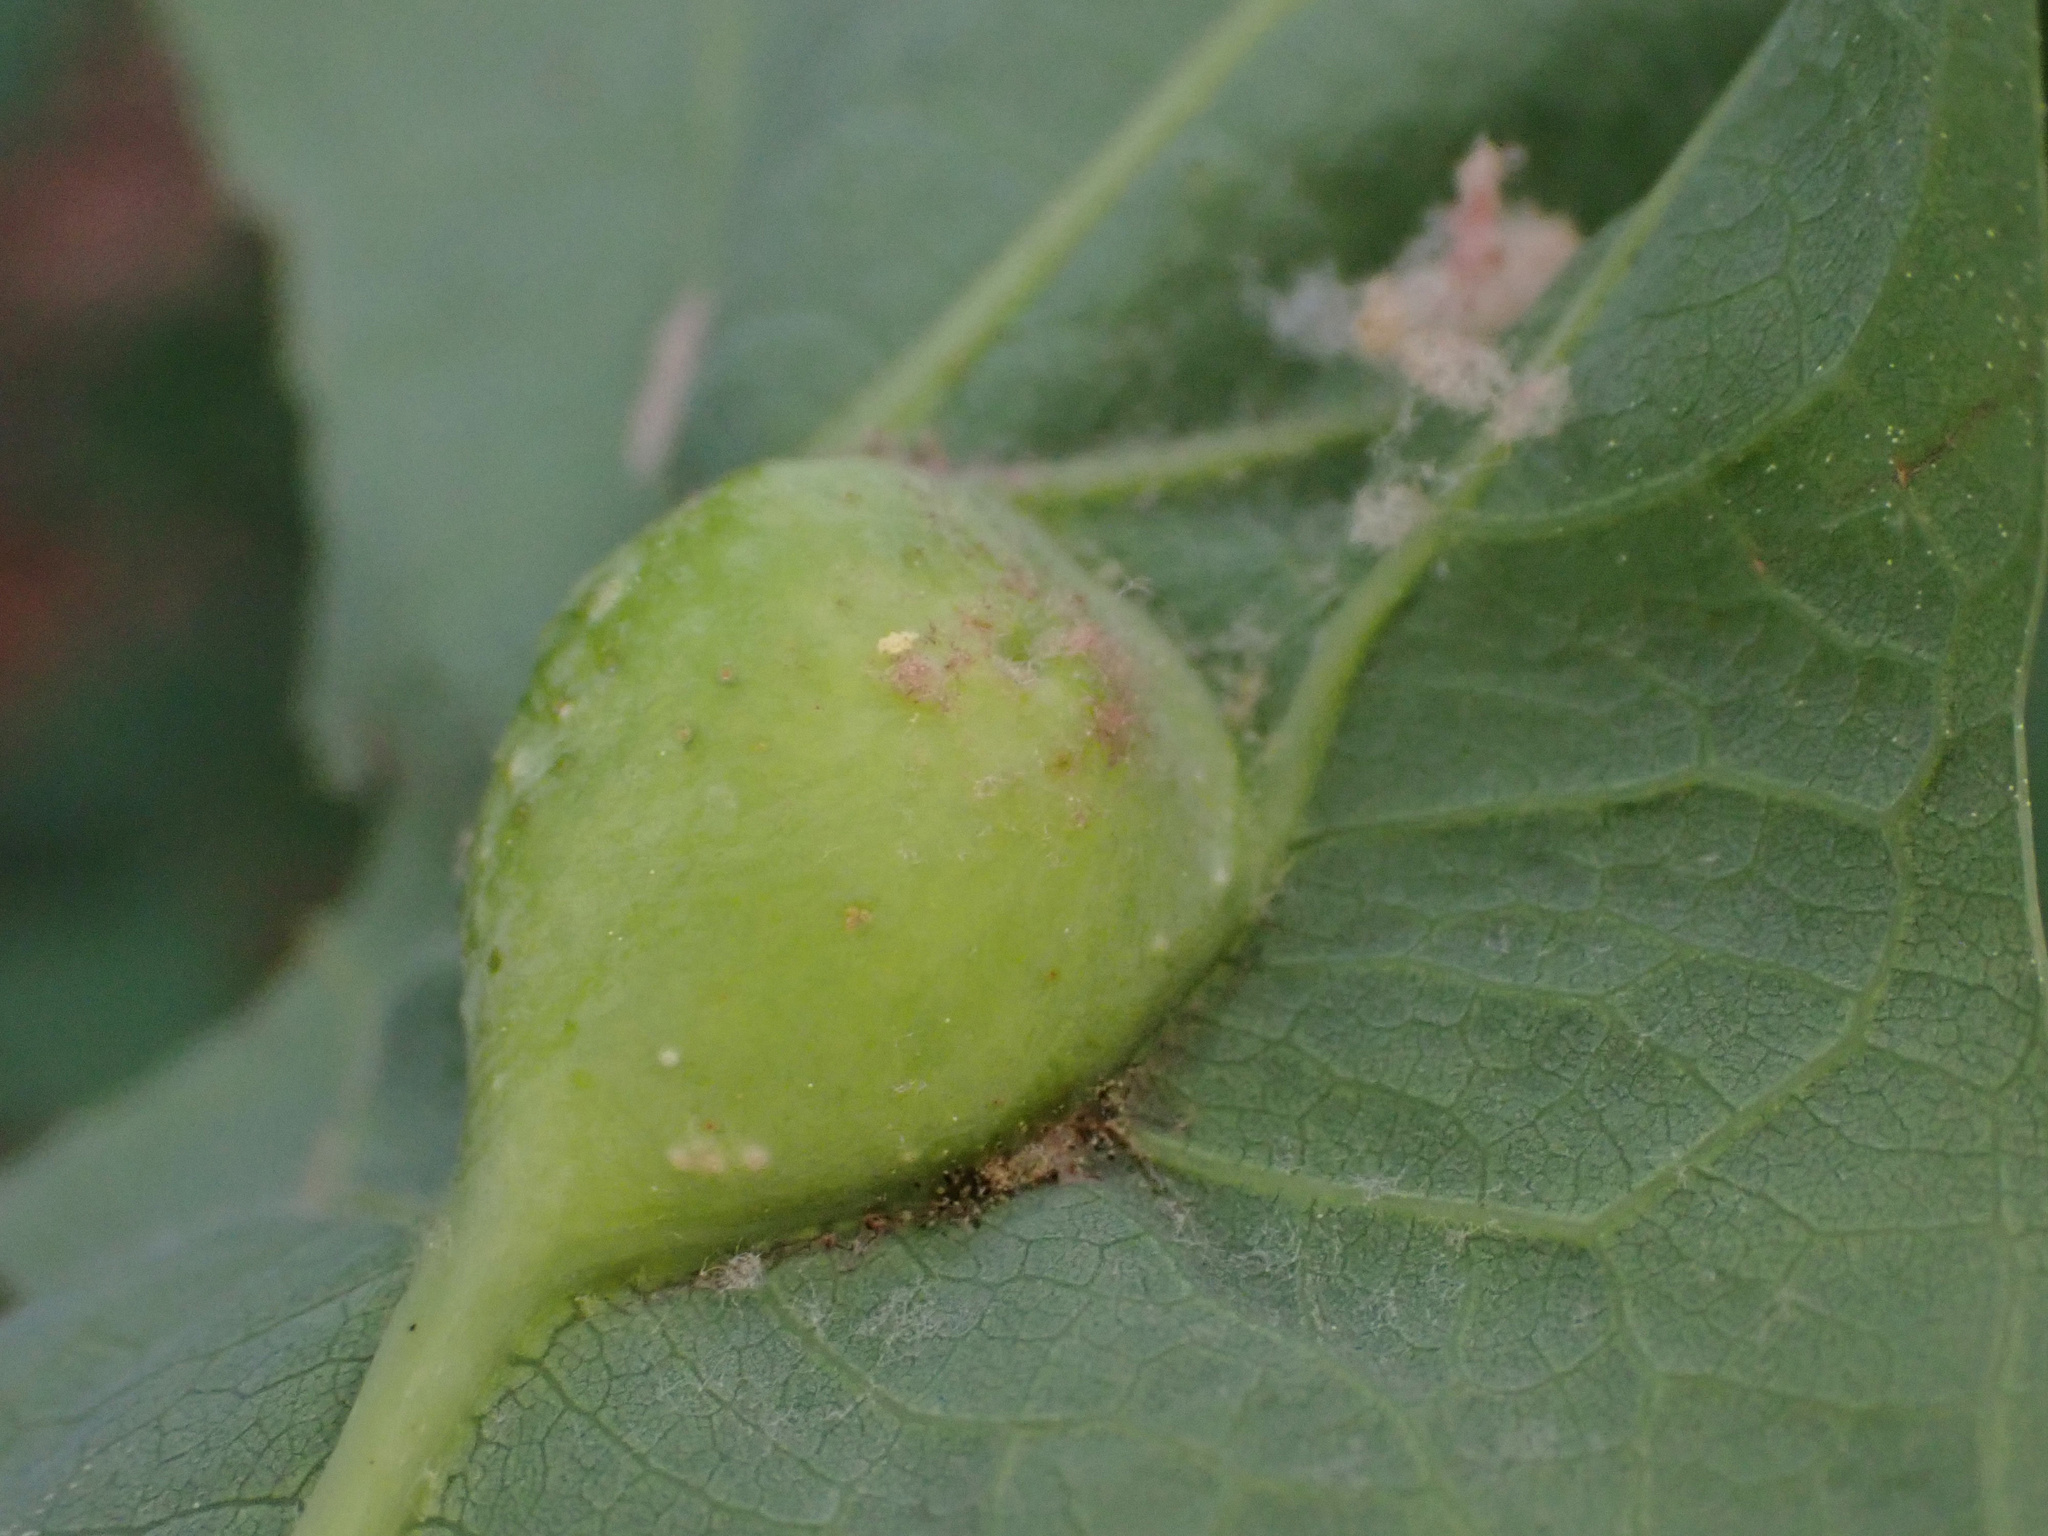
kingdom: Animalia
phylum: Arthropoda
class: Insecta
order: Hymenoptera
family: Cynipidae
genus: Andricus
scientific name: Andricus
